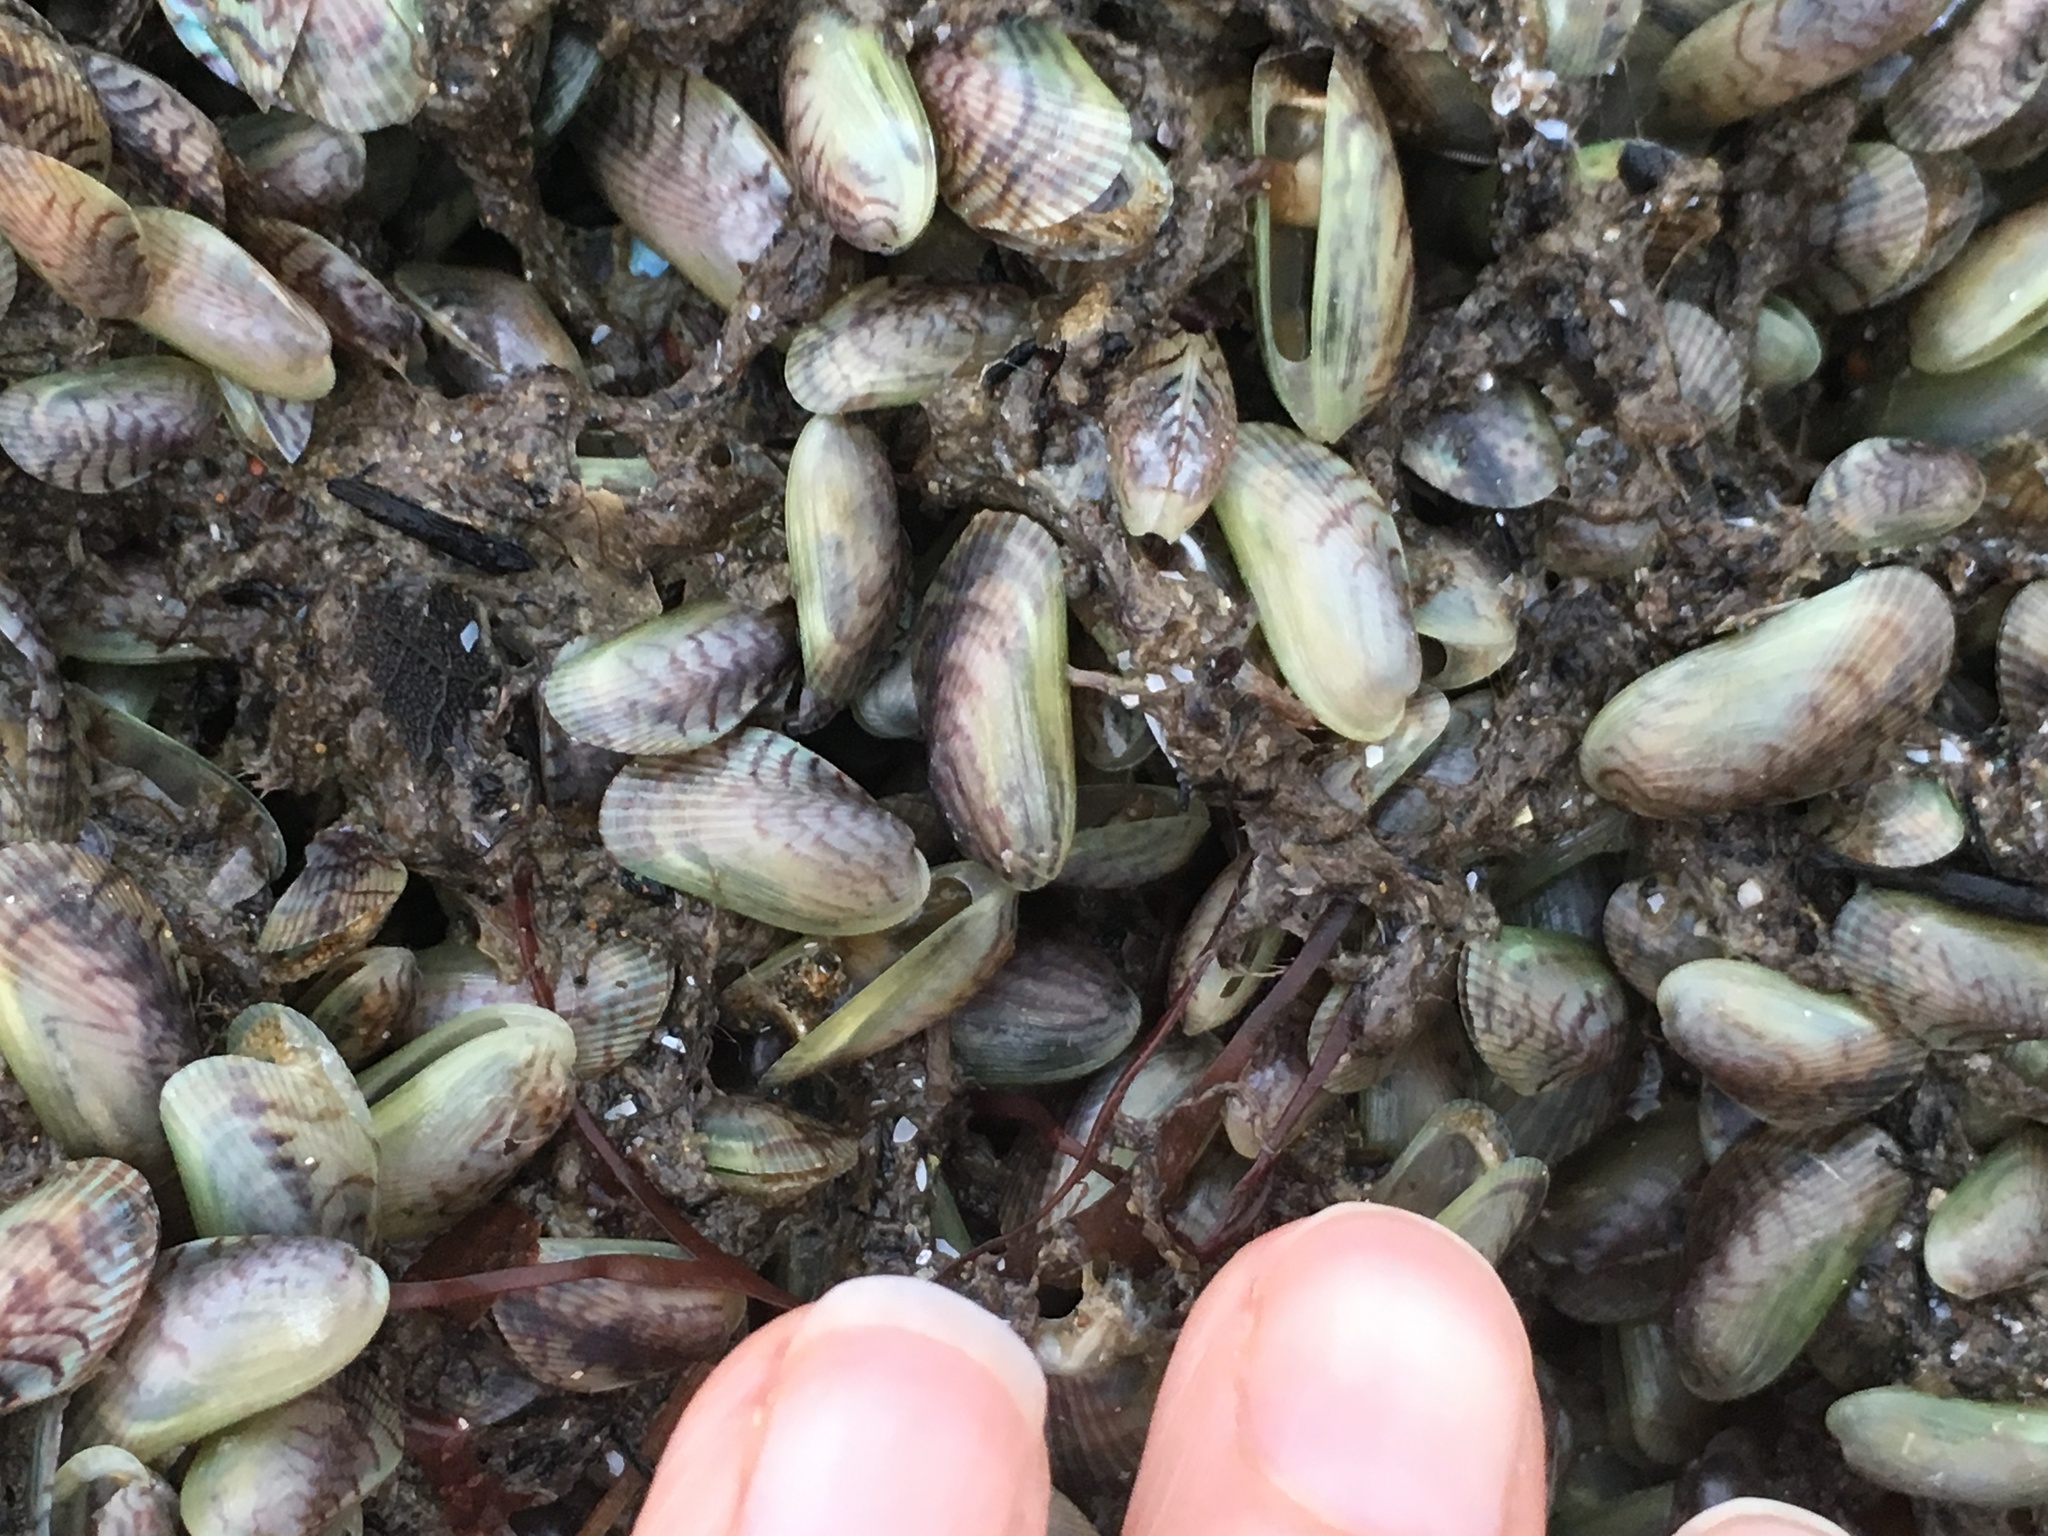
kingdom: Animalia
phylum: Mollusca
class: Bivalvia
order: Mytilida
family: Mytilidae
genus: Arcuatula
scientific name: Arcuatula senhousia
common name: Asian mussel
